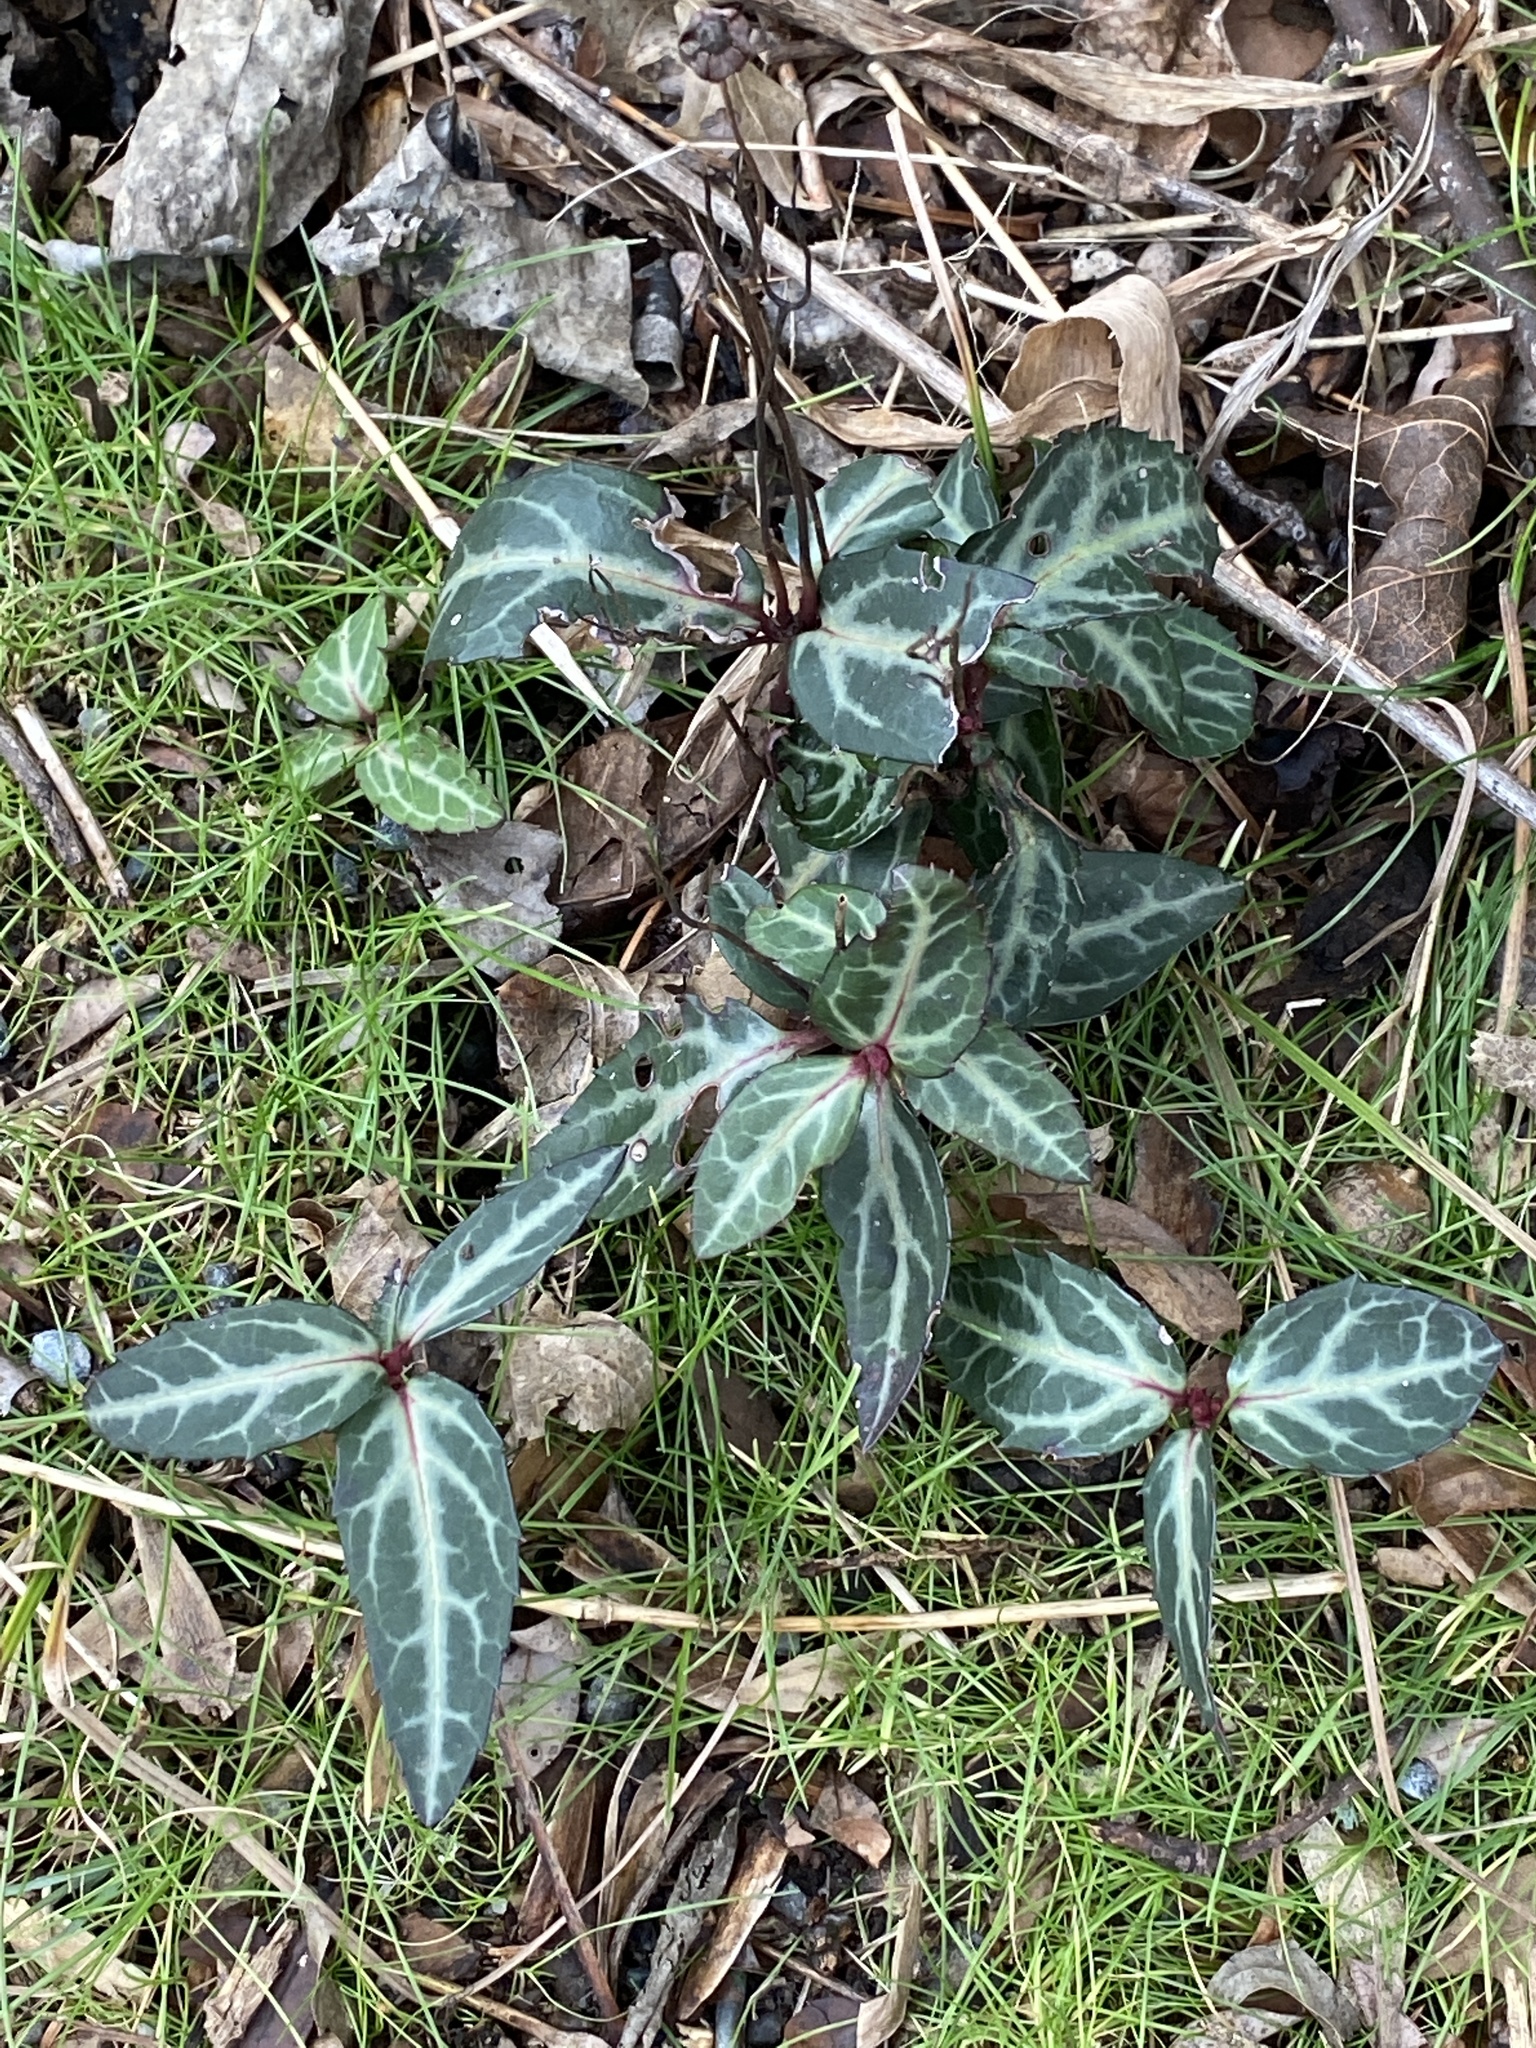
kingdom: Plantae
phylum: Tracheophyta
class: Magnoliopsida
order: Ericales
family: Ericaceae
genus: Chimaphila
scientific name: Chimaphila maculata
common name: Spotted pipsissewa
